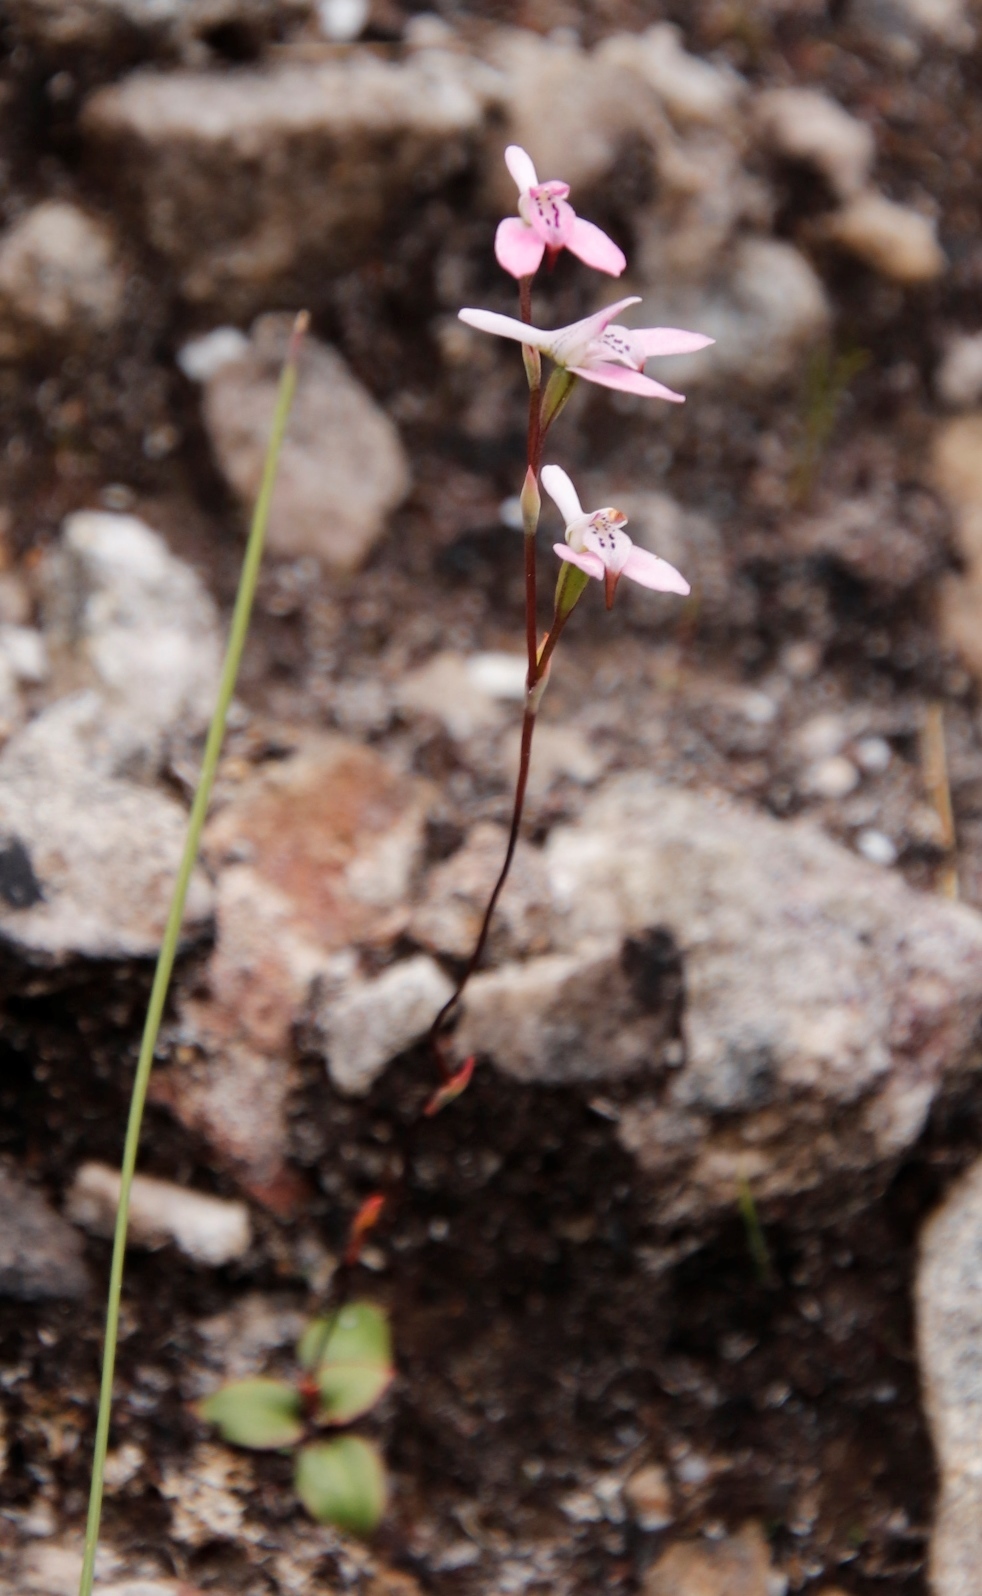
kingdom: Plantae
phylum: Tracheophyta
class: Liliopsida
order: Asparagales
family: Orchidaceae
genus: Disa
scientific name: Disa obliqua
